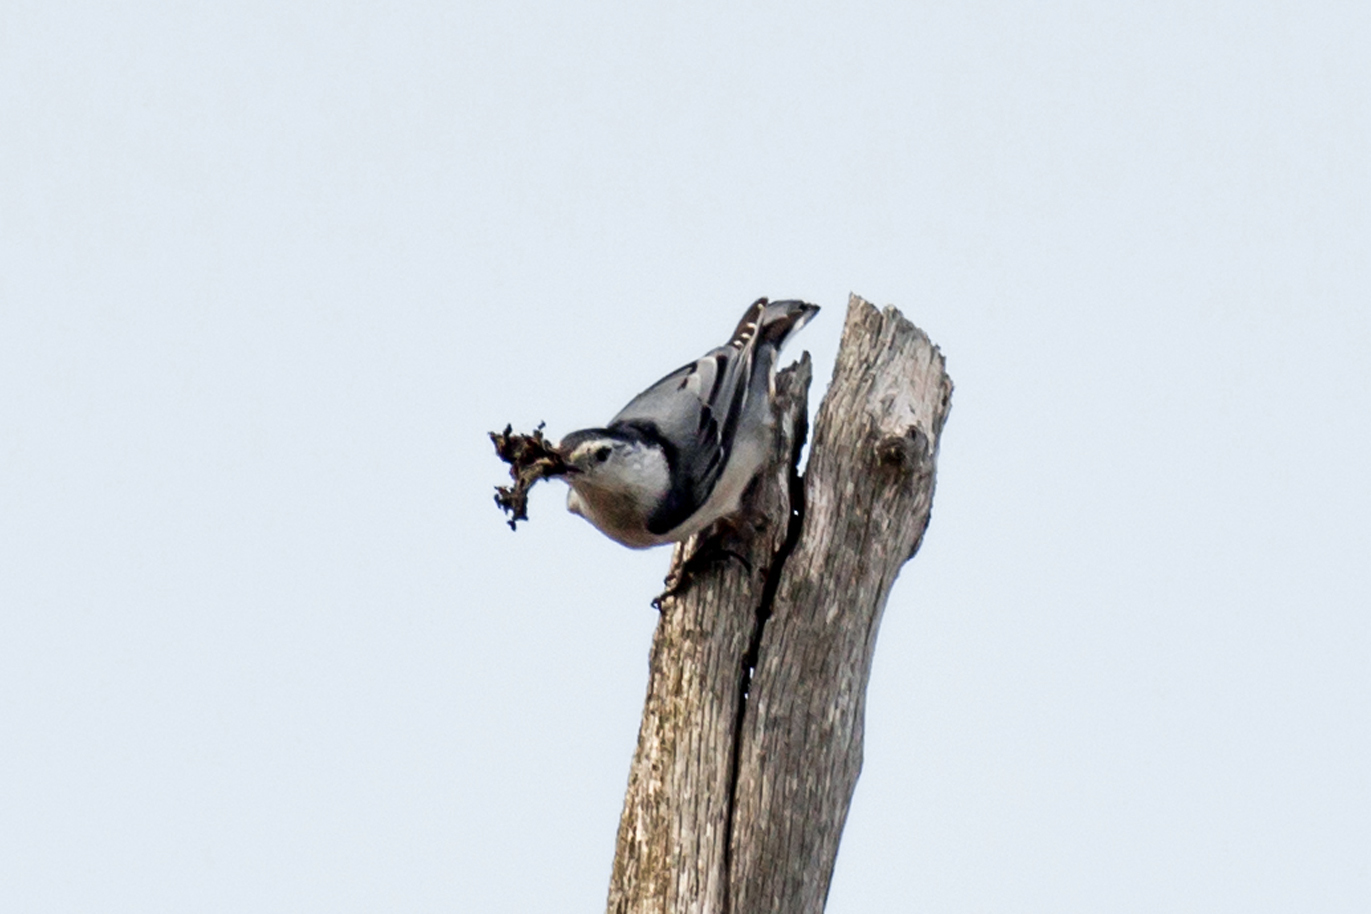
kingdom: Animalia
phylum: Chordata
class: Aves
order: Passeriformes
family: Sittidae
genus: Sitta
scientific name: Sitta carolinensis
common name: White-breasted nuthatch
